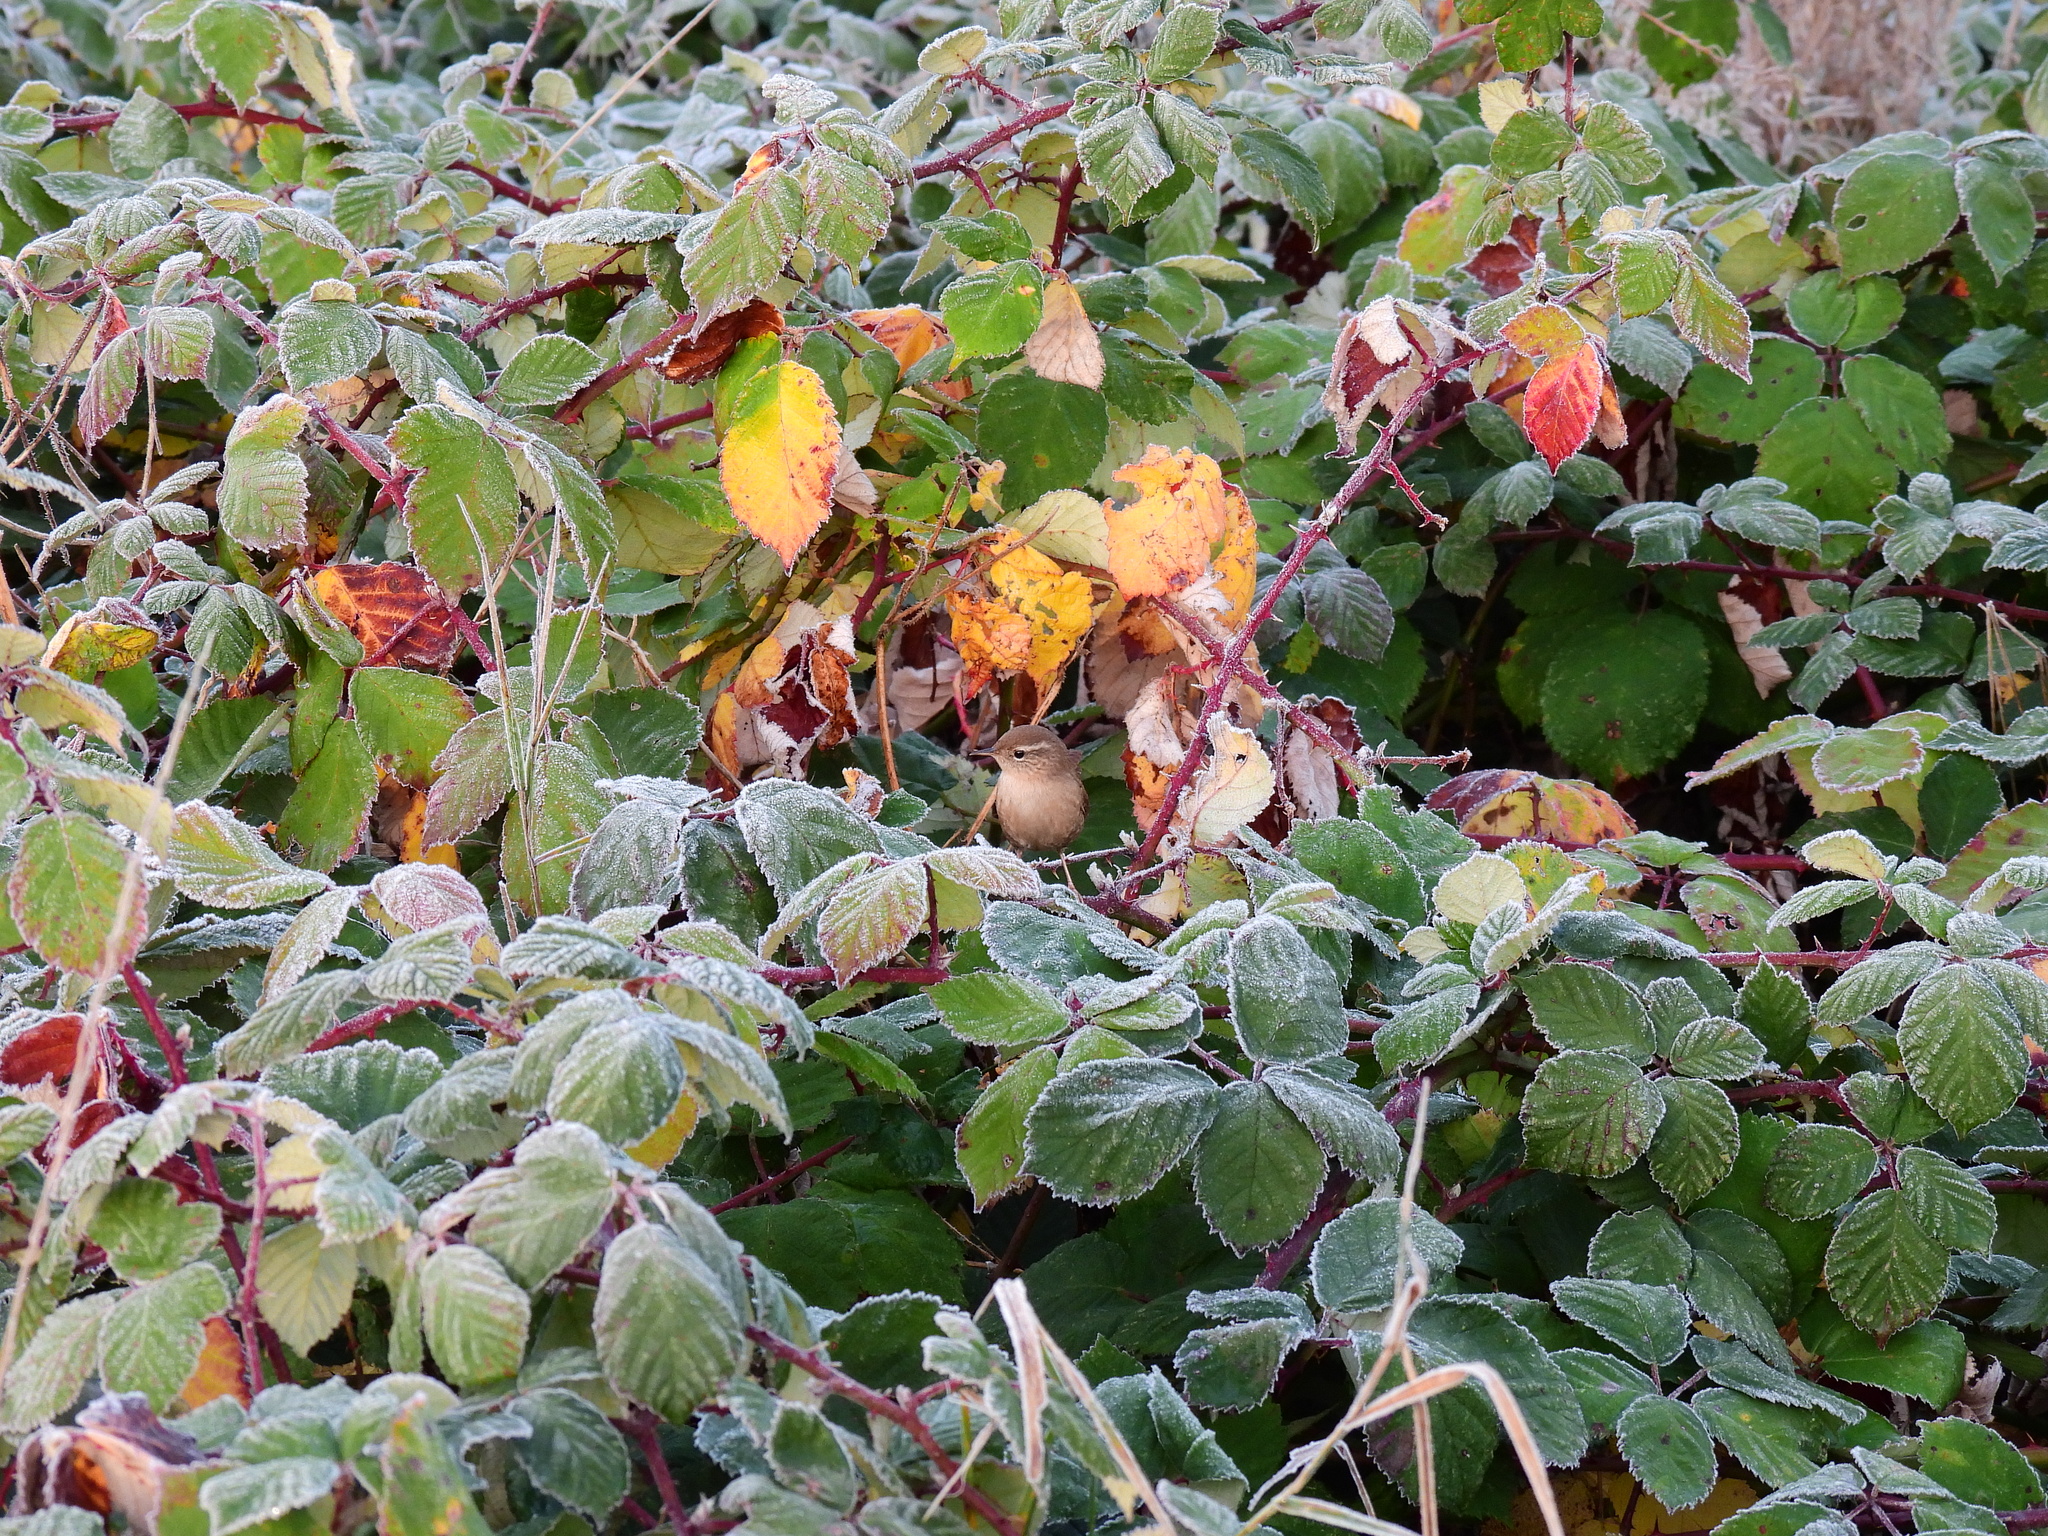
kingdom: Animalia
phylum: Chordata
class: Aves
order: Passeriformes
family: Troglodytidae
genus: Troglodytes
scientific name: Troglodytes troglodytes
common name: Eurasian wren
